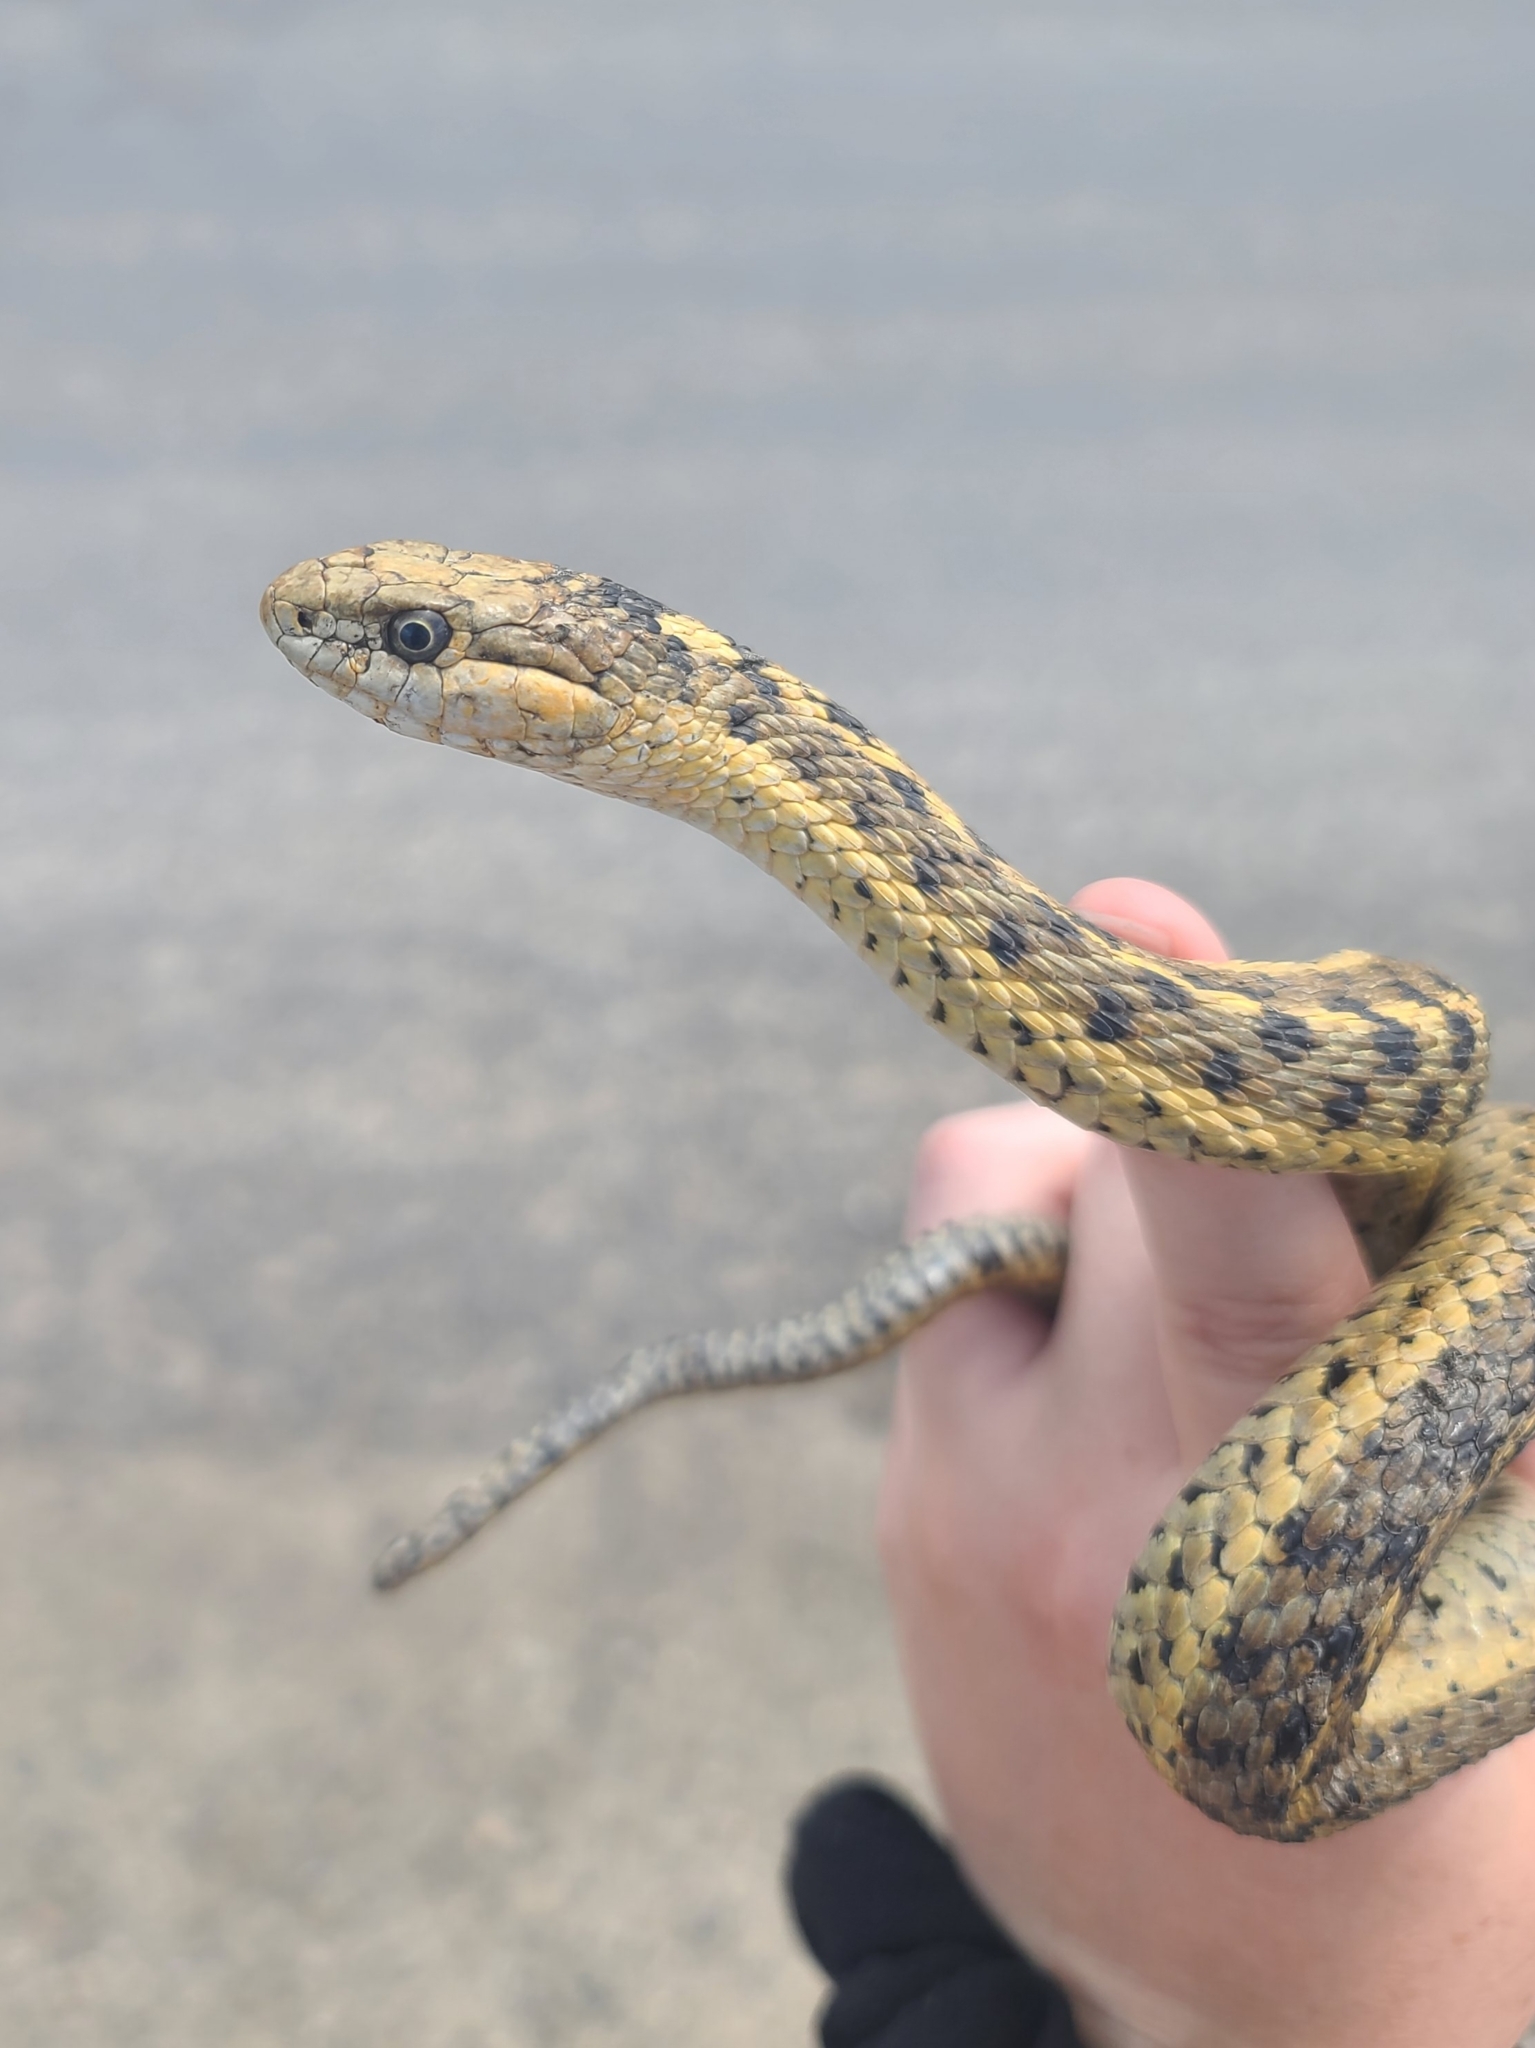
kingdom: Animalia
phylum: Chordata
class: Squamata
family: Colubridae
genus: Thamnophis
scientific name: Thamnophis elegans
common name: Western terrestrial garter snake
